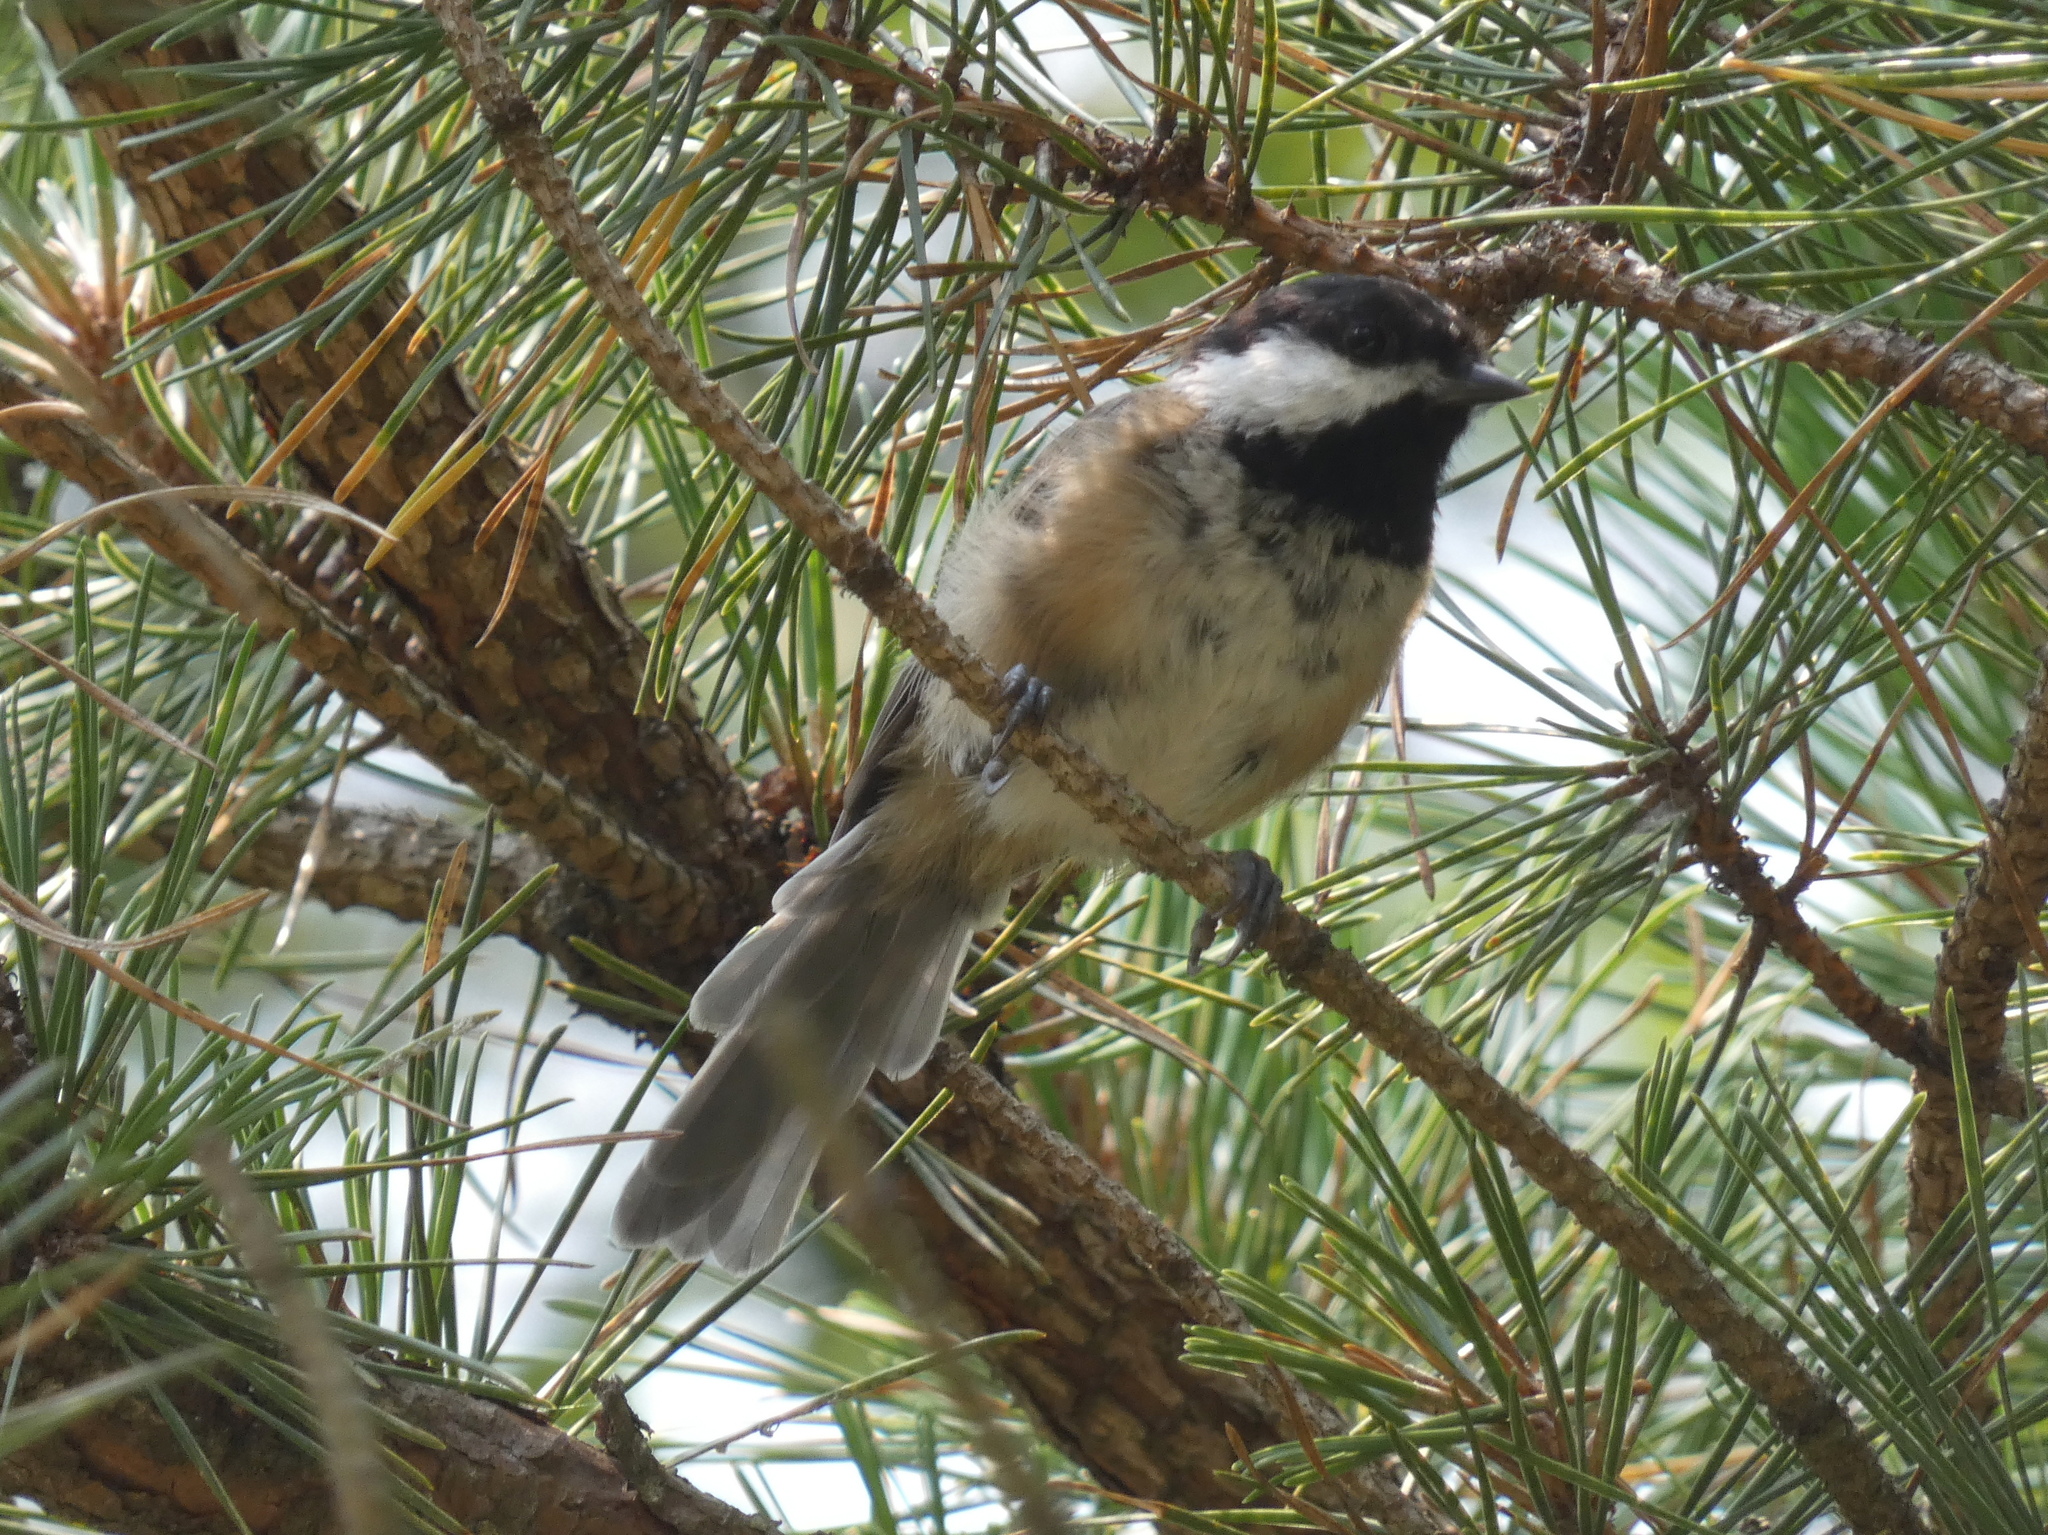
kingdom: Animalia
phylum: Chordata
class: Aves
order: Passeriformes
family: Paridae
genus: Poecile
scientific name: Poecile atricapillus
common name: Black-capped chickadee
